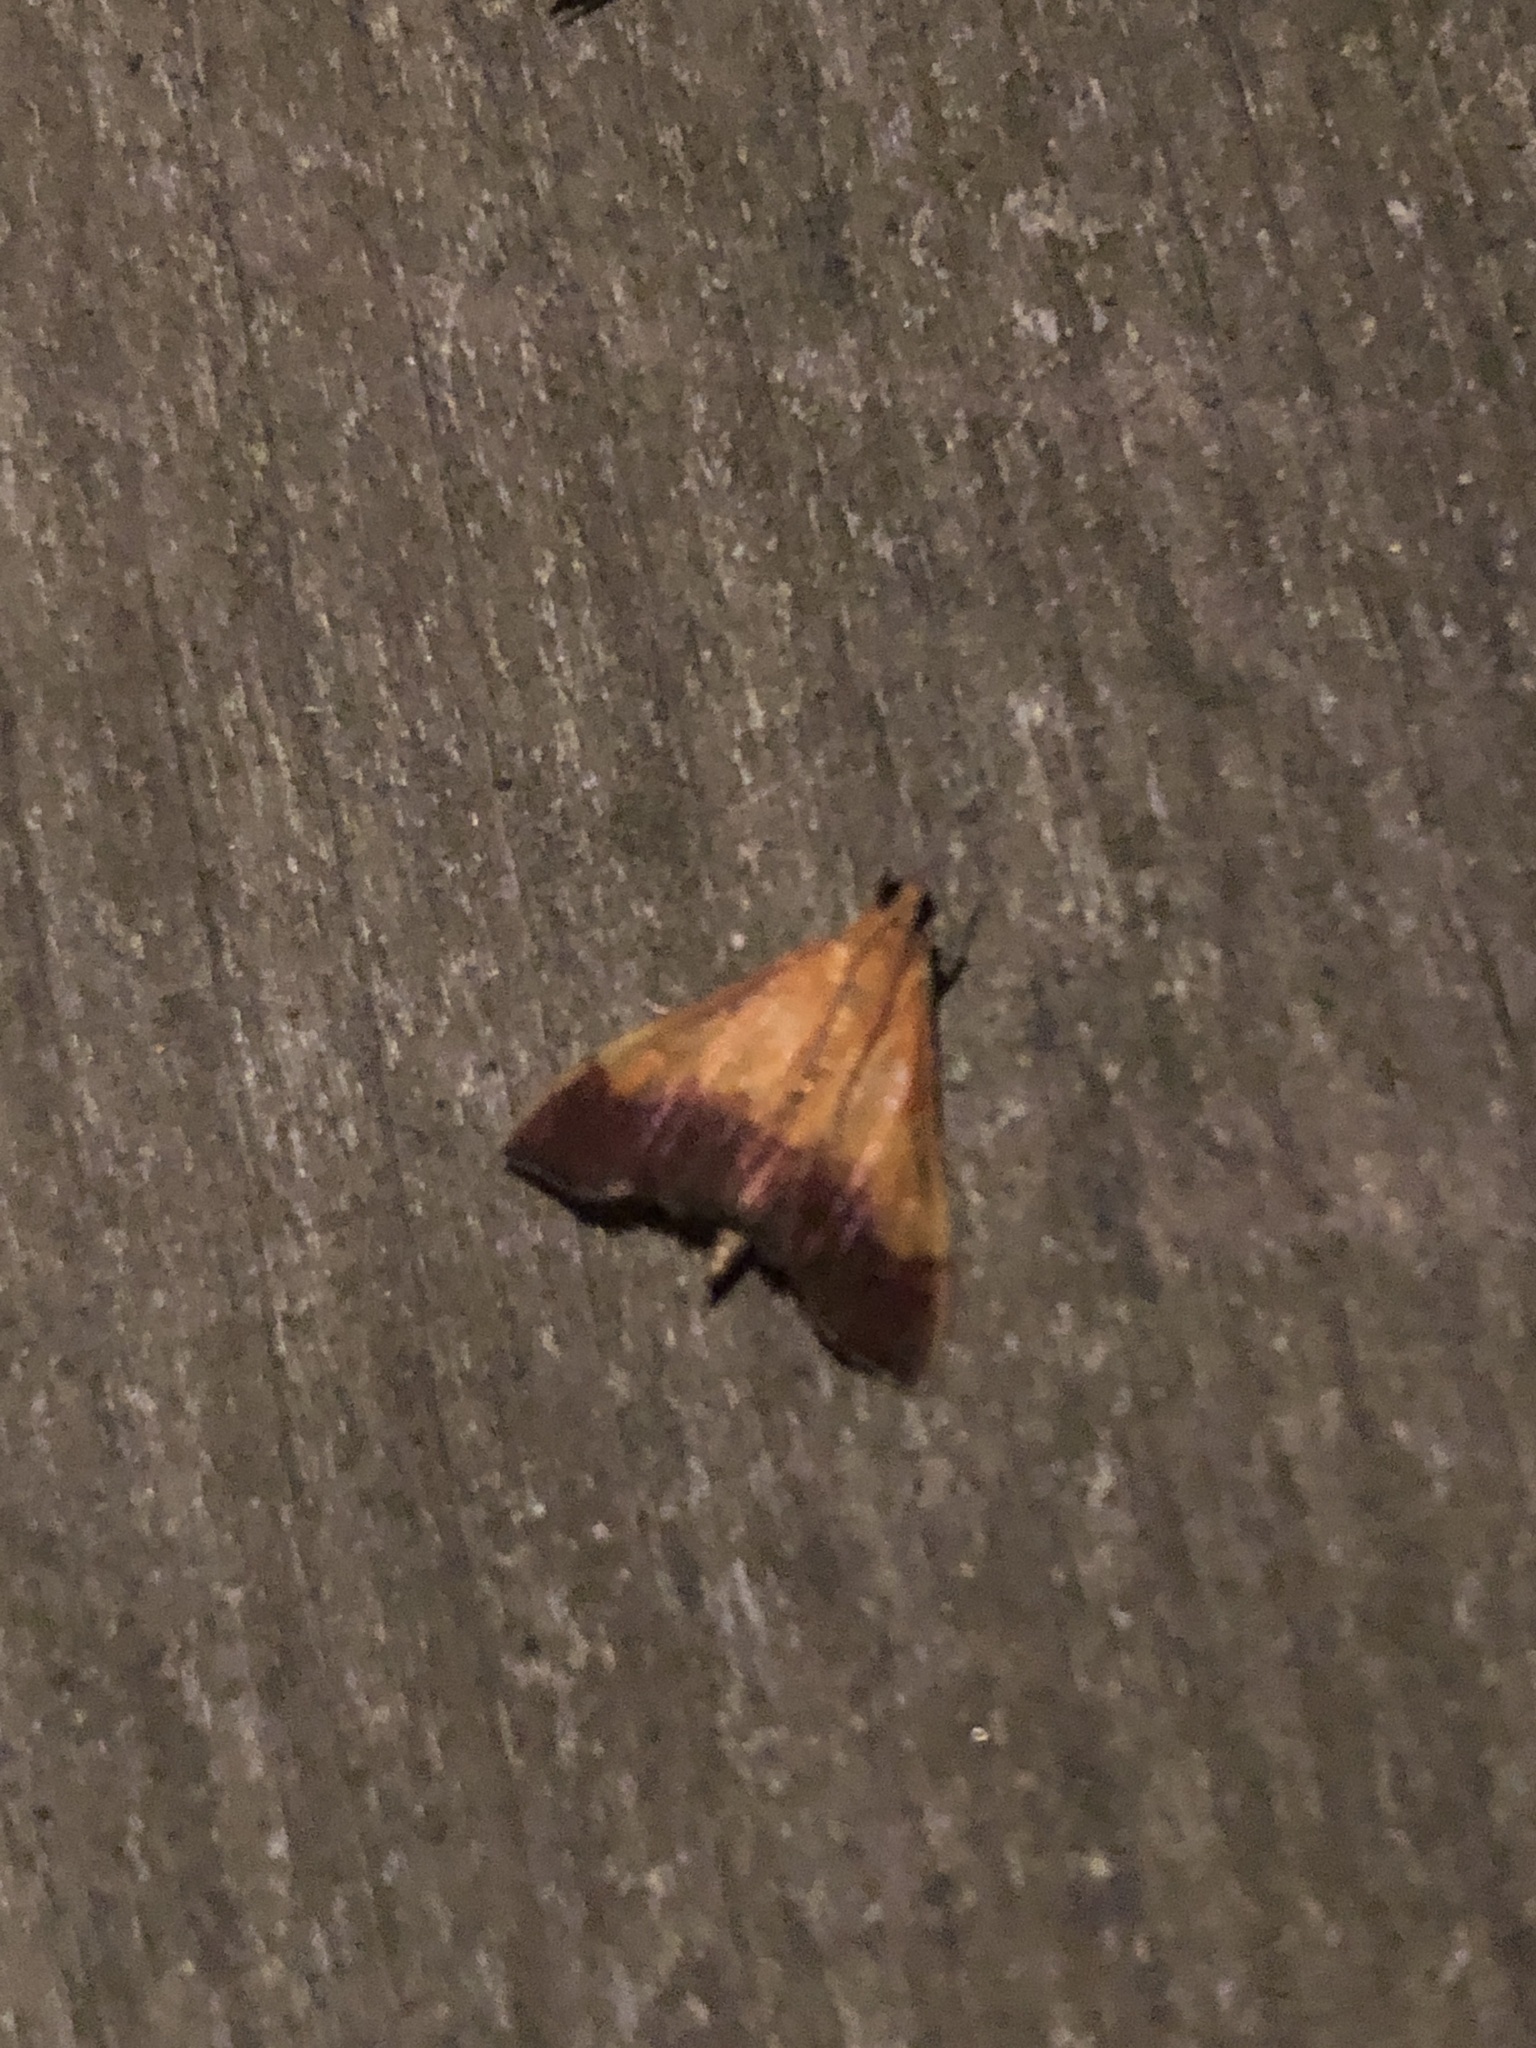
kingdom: Animalia
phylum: Arthropoda
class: Insecta
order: Lepidoptera
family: Crambidae
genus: Pyrausta
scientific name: Pyrausta bicoloralis
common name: Bicolored pyrausta moth
